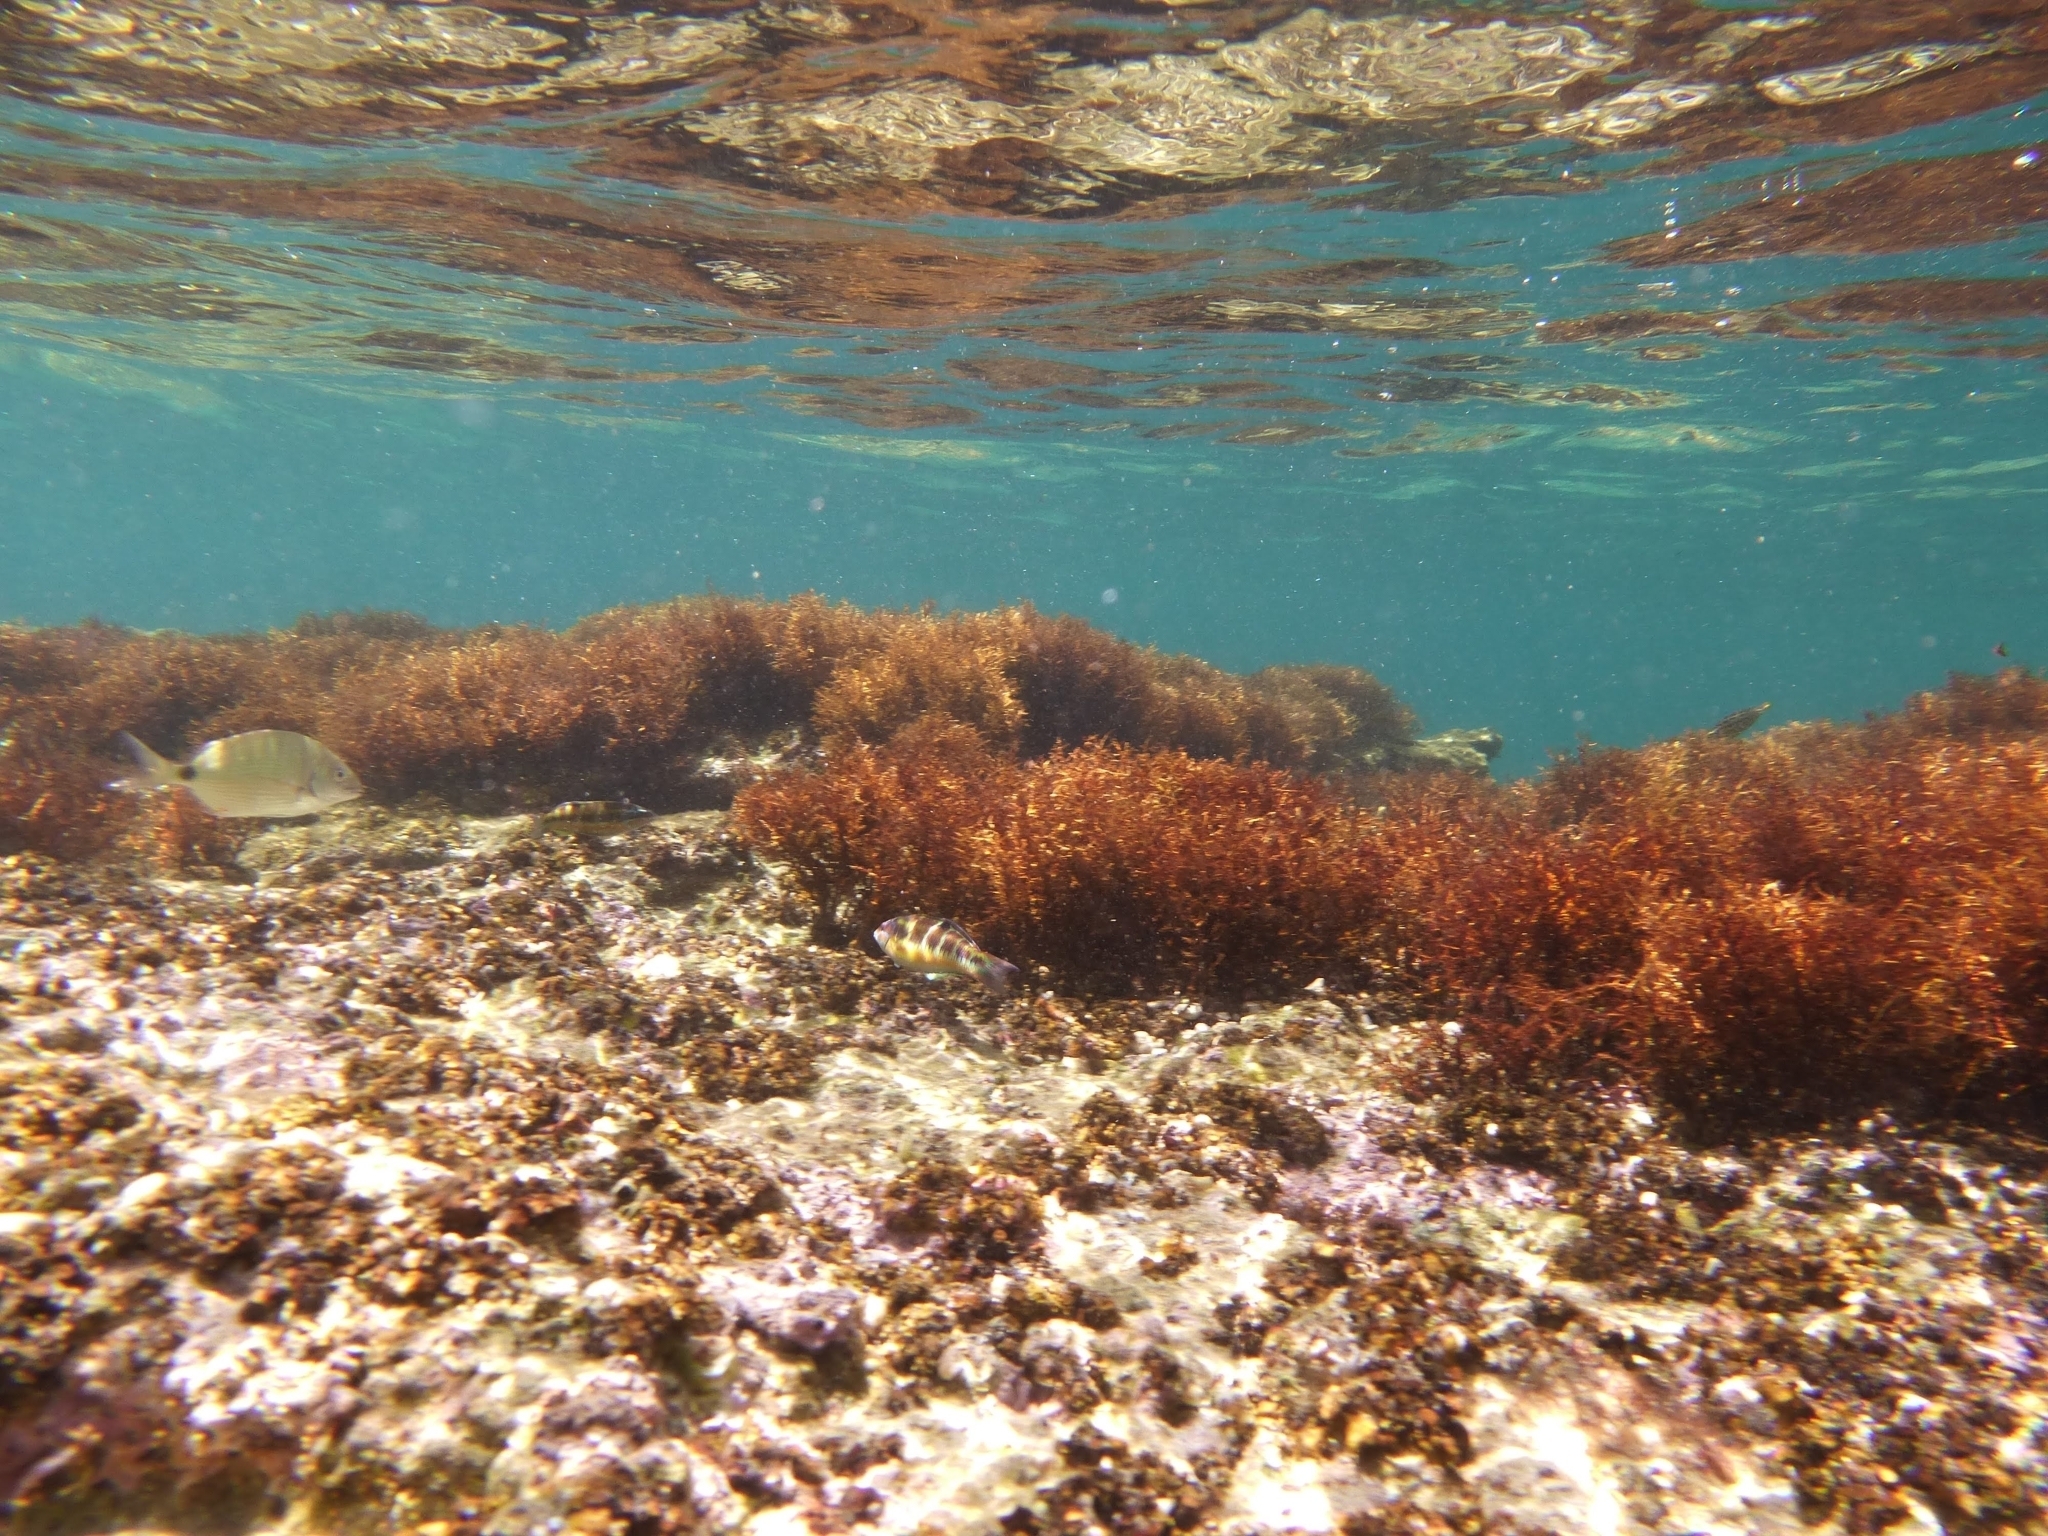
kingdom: Animalia
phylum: Chordata
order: Perciformes
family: Labridae
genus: Thalassoma
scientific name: Thalassoma pavo
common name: Ornate wrasse
